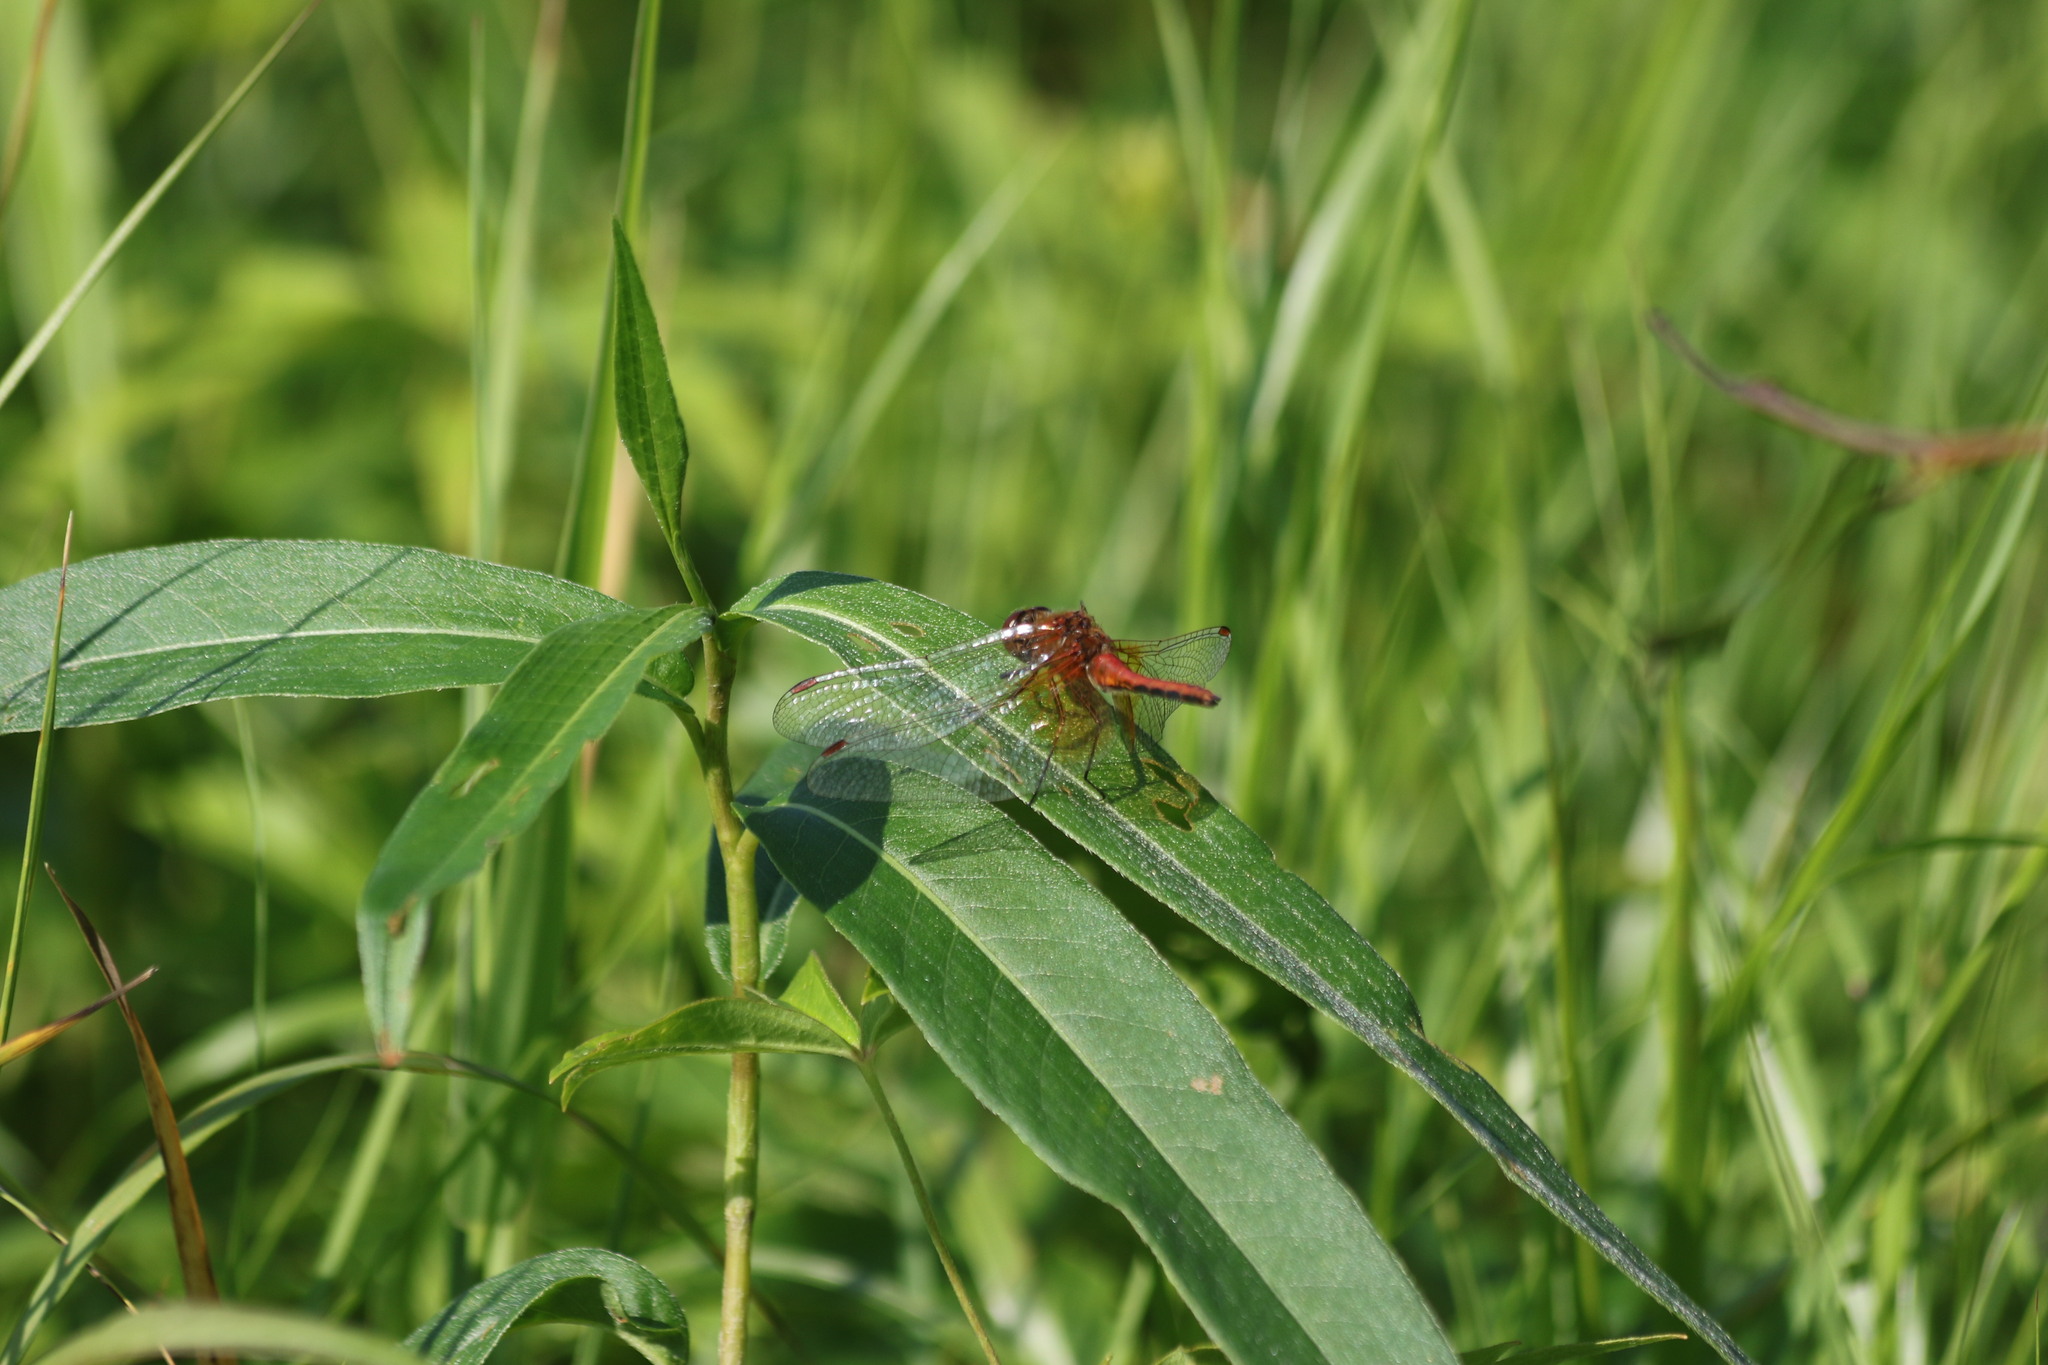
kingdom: Animalia
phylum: Arthropoda
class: Insecta
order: Odonata
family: Libellulidae
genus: Sympetrum
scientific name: Sympetrum flaveolum
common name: Yellow-winged darter
